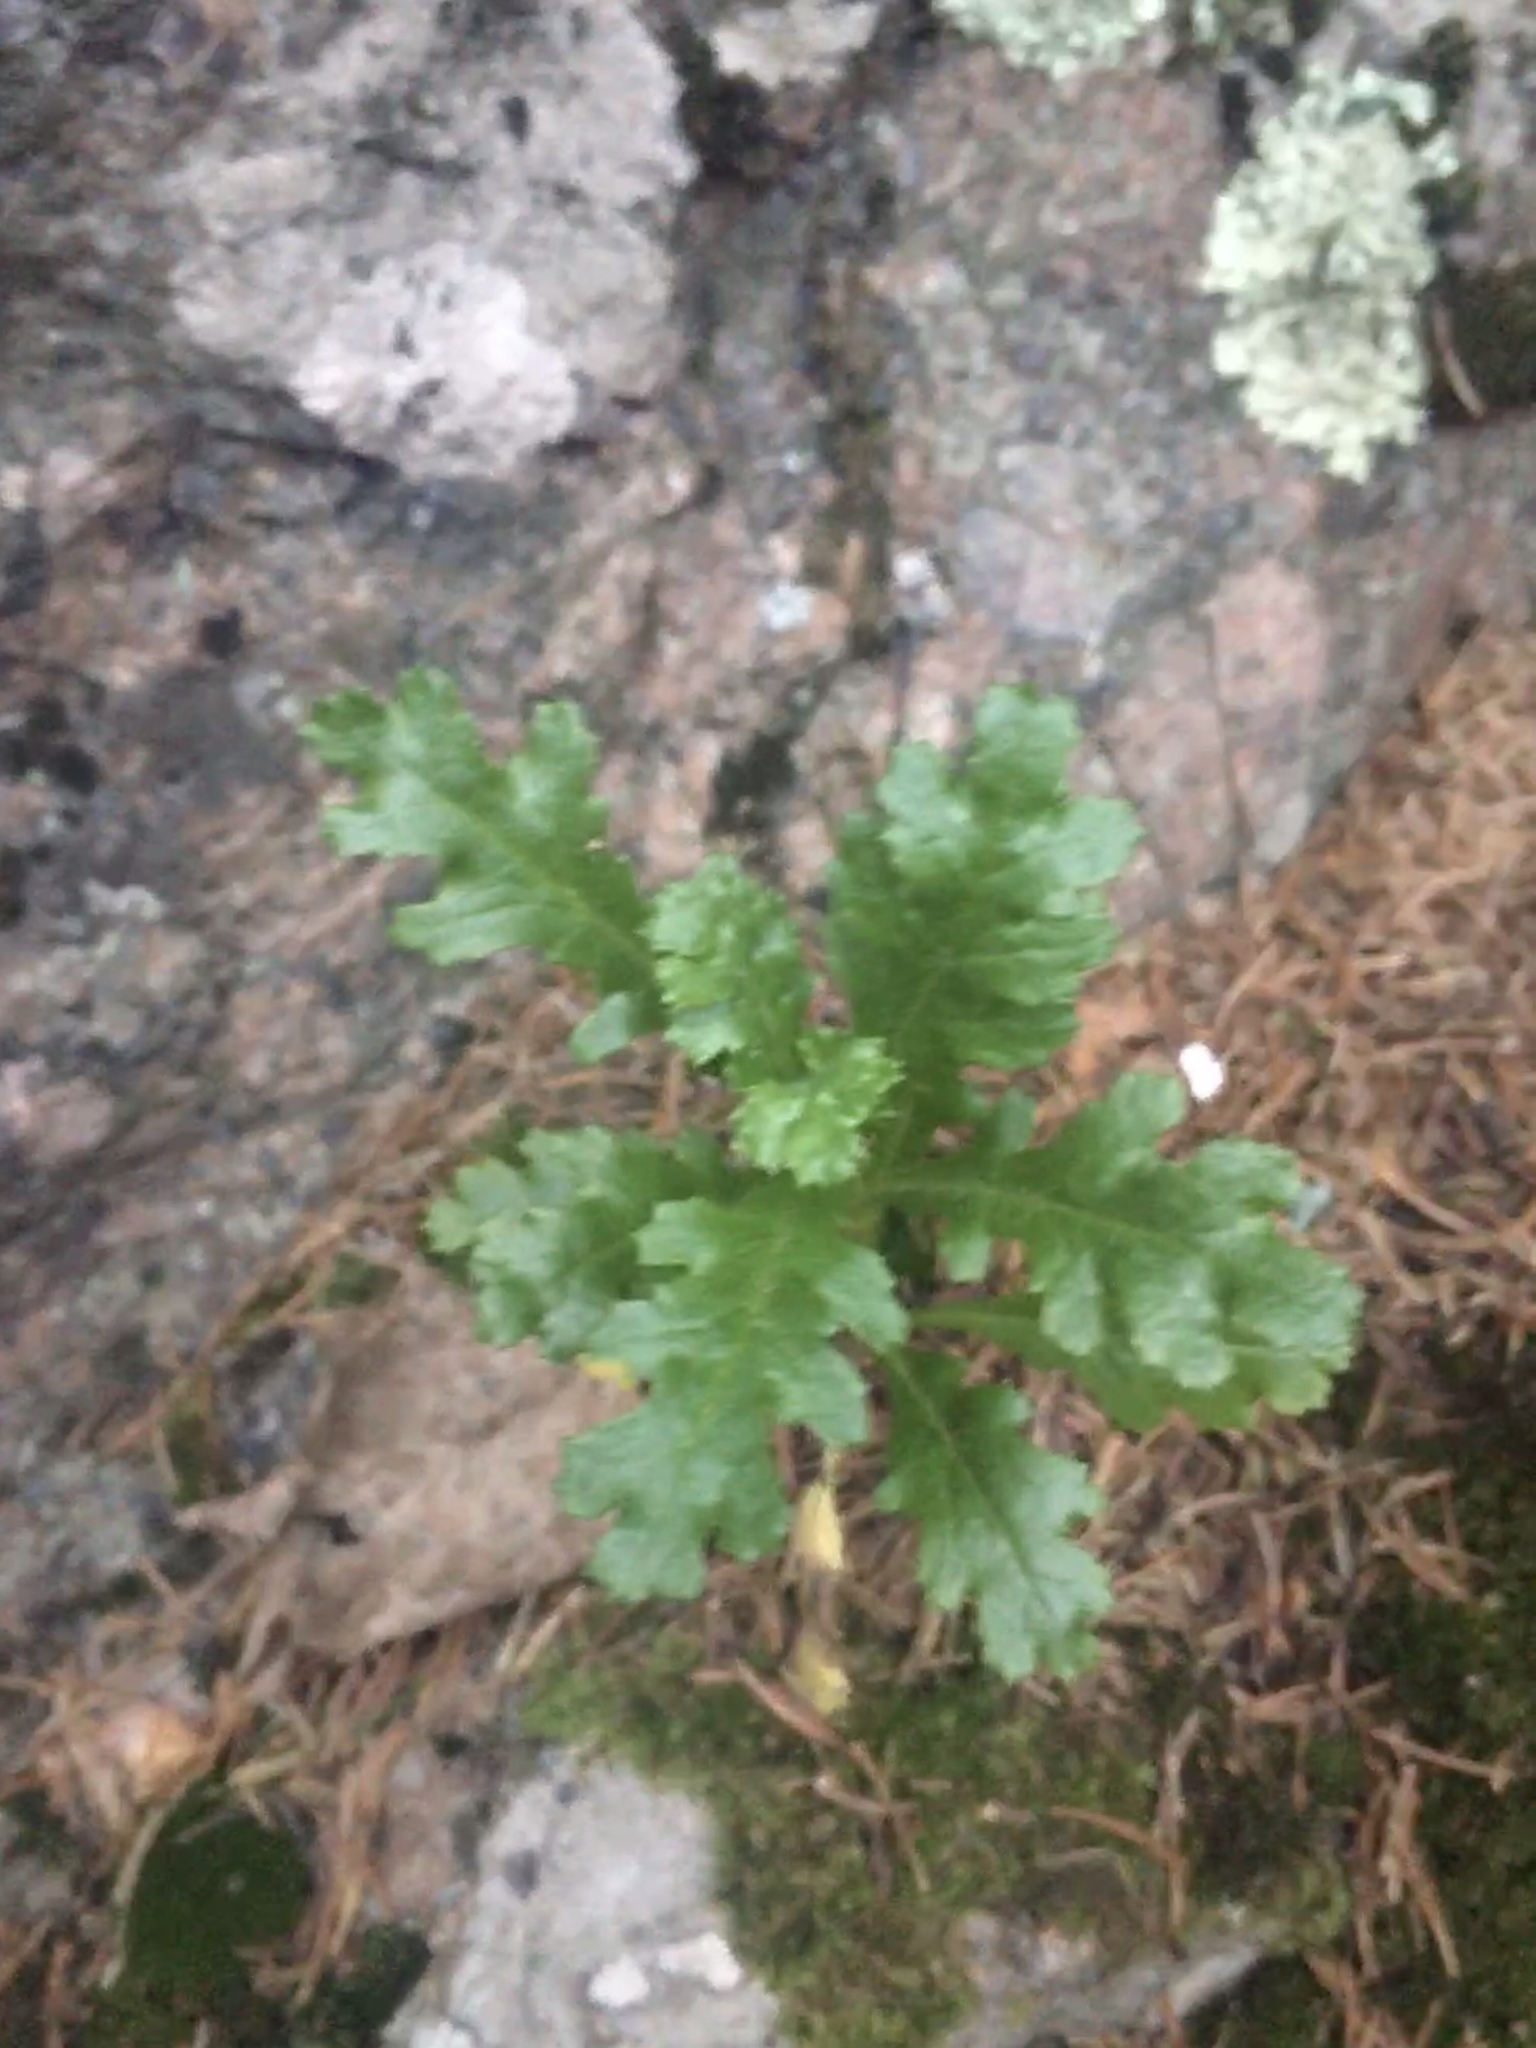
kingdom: Plantae
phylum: Tracheophyta
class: Magnoliopsida
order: Asterales
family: Asteraceae
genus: Senecio
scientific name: Senecio vulgaris
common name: Old-man-in-the-spring
